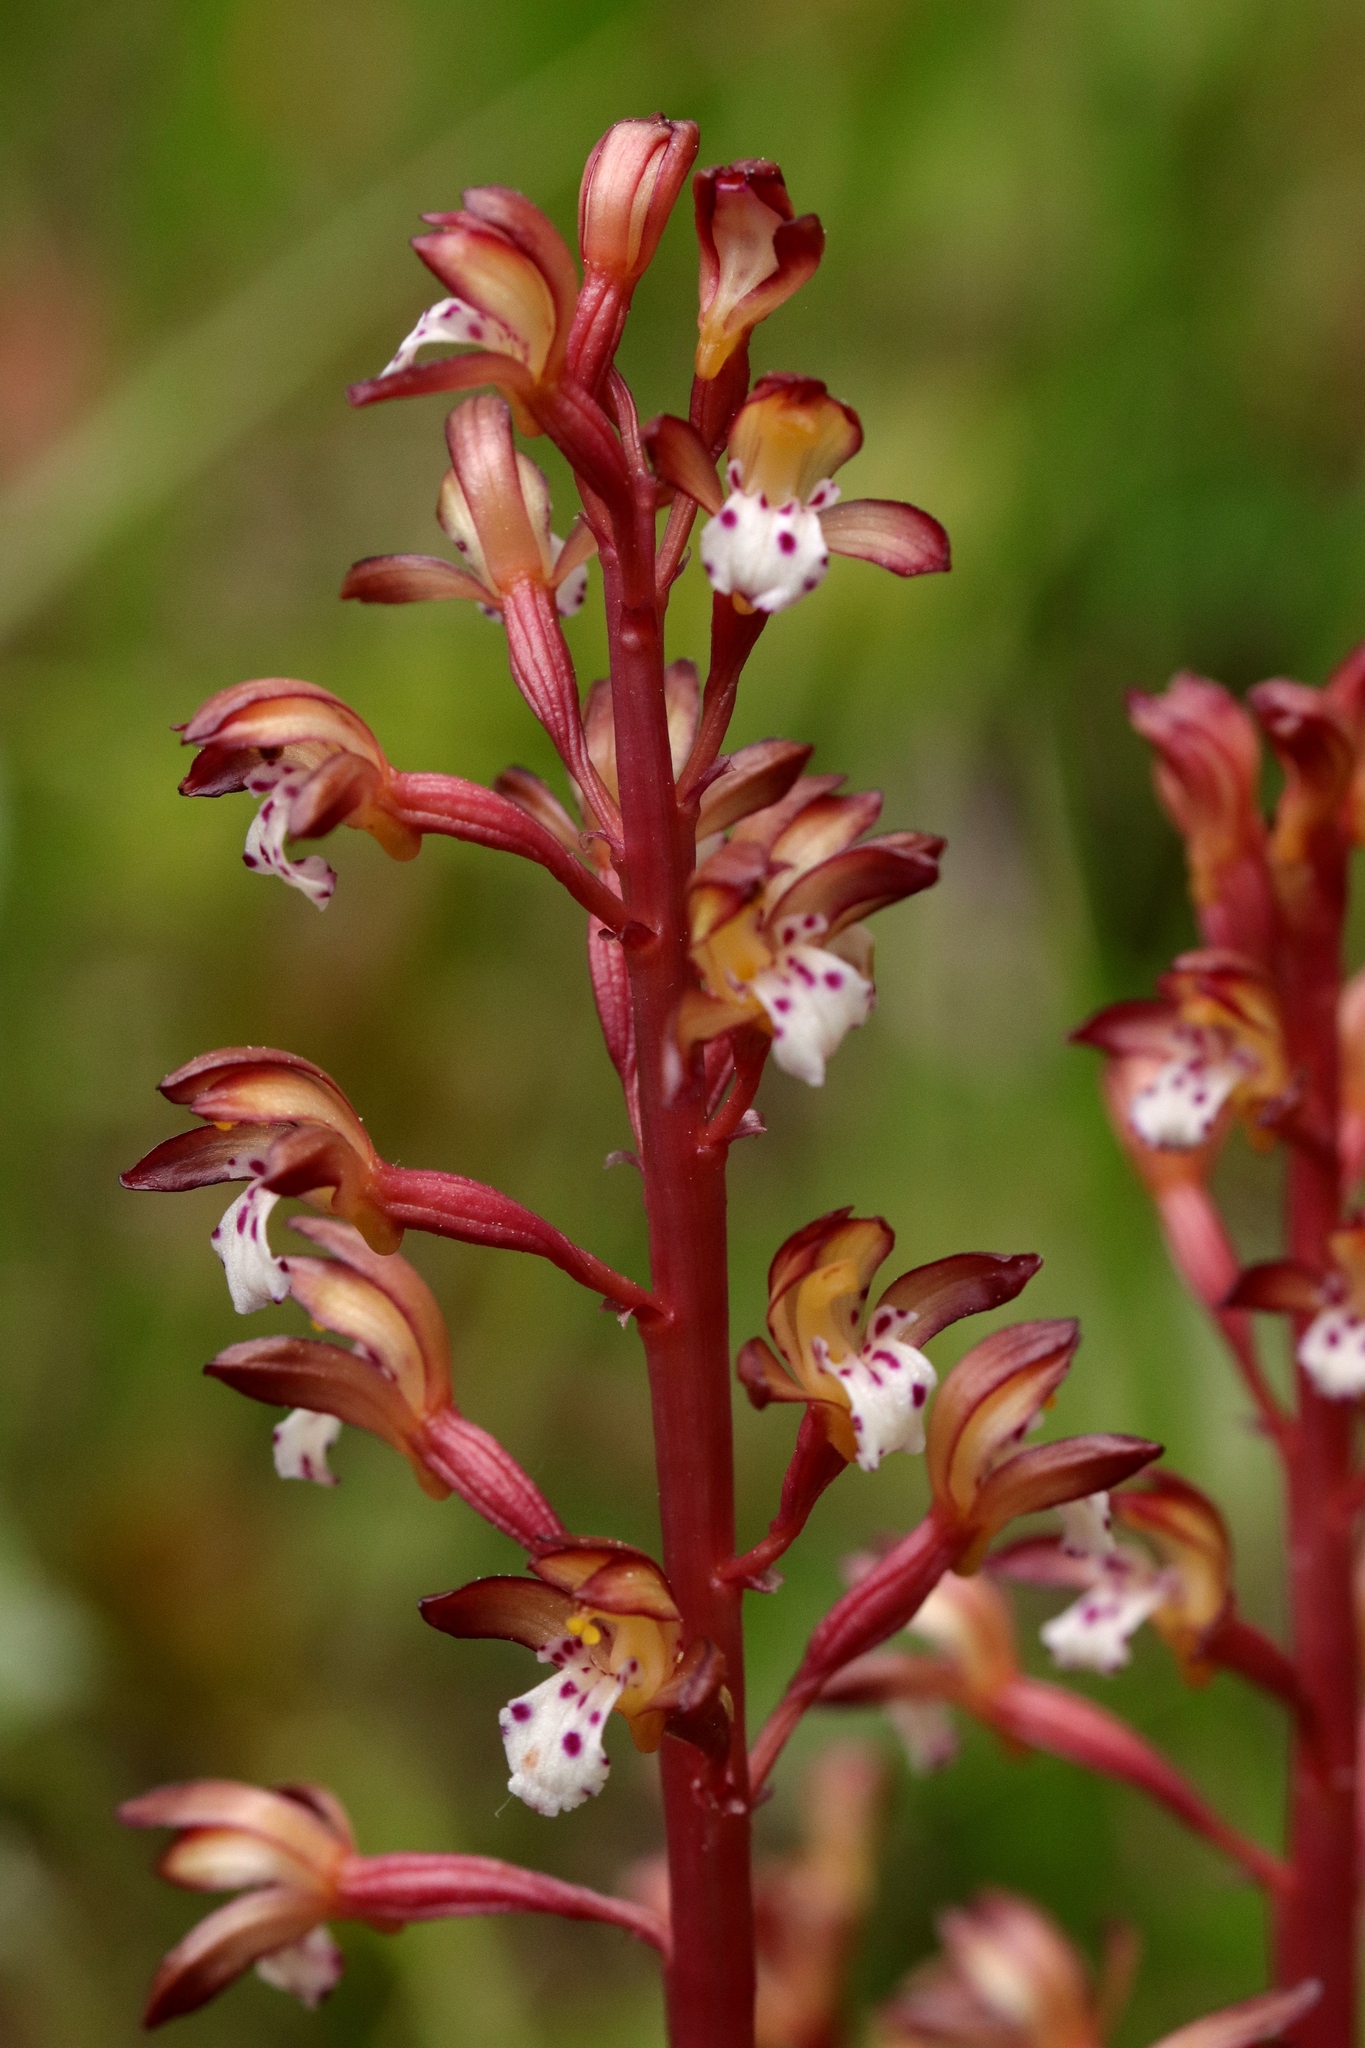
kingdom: Plantae
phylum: Tracheophyta
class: Liliopsida
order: Asparagales
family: Orchidaceae
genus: Corallorhiza
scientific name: Corallorhiza maculata
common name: Spotted coralroot
